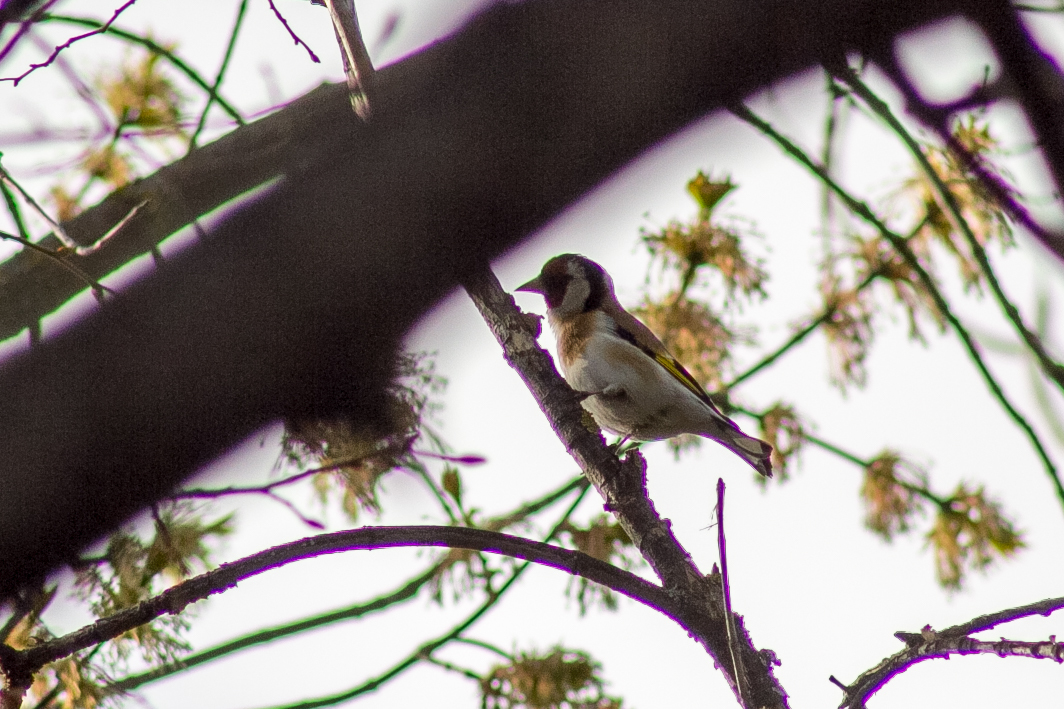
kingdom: Animalia
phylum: Chordata
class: Aves
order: Passeriformes
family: Fringillidae
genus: Carduelis
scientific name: Carduelis carduelis
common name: European goldfinch
